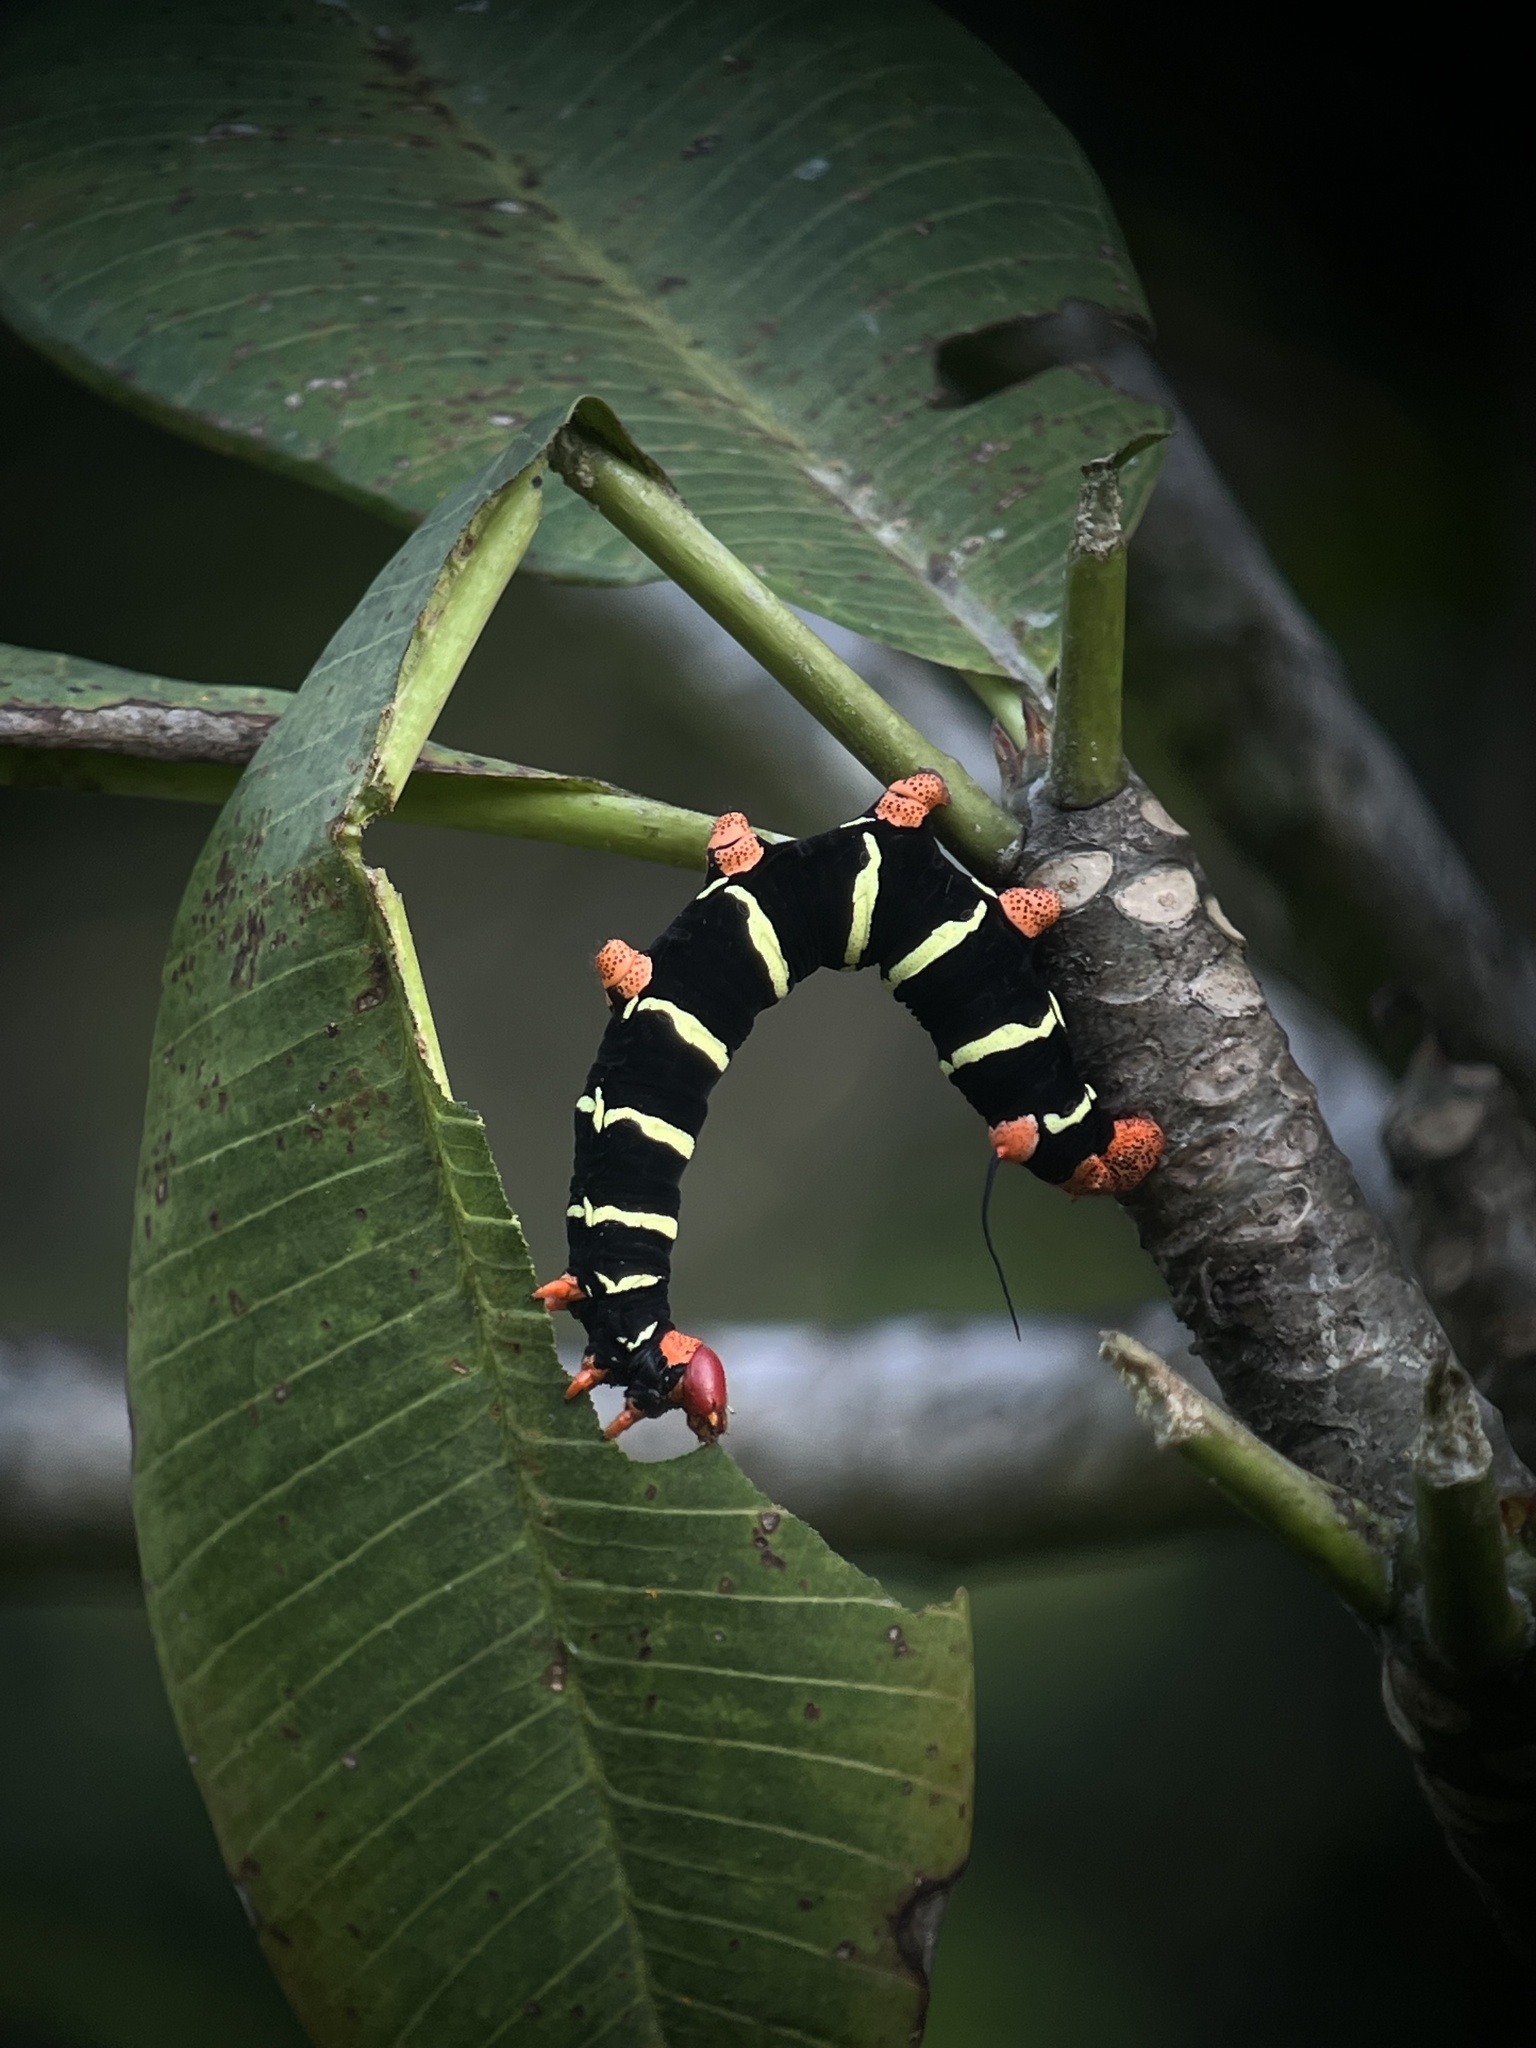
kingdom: Animalia
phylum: Arthropoda
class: Insecta
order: Lepidoptera
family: Sphingidae
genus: Pseudosphinx
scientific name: Pseudosphinx tetrio
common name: Tetrio sphinx
